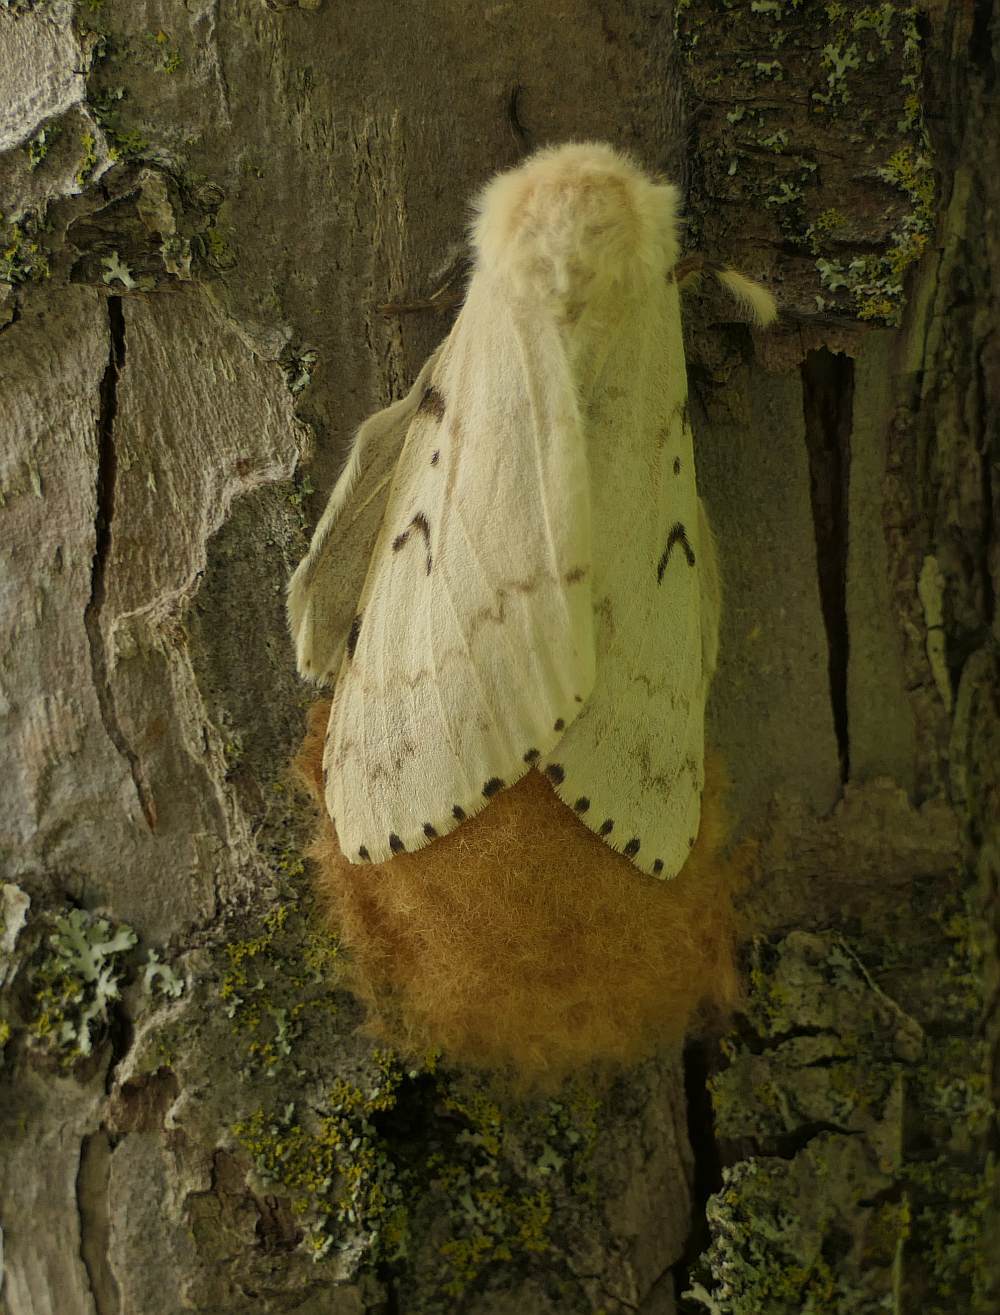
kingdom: Animalia
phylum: Arthropoda
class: Insecta
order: Lepidoptera
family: Erebidae
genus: Lymantria
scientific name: Lymantria dispar
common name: Gypsy moth
